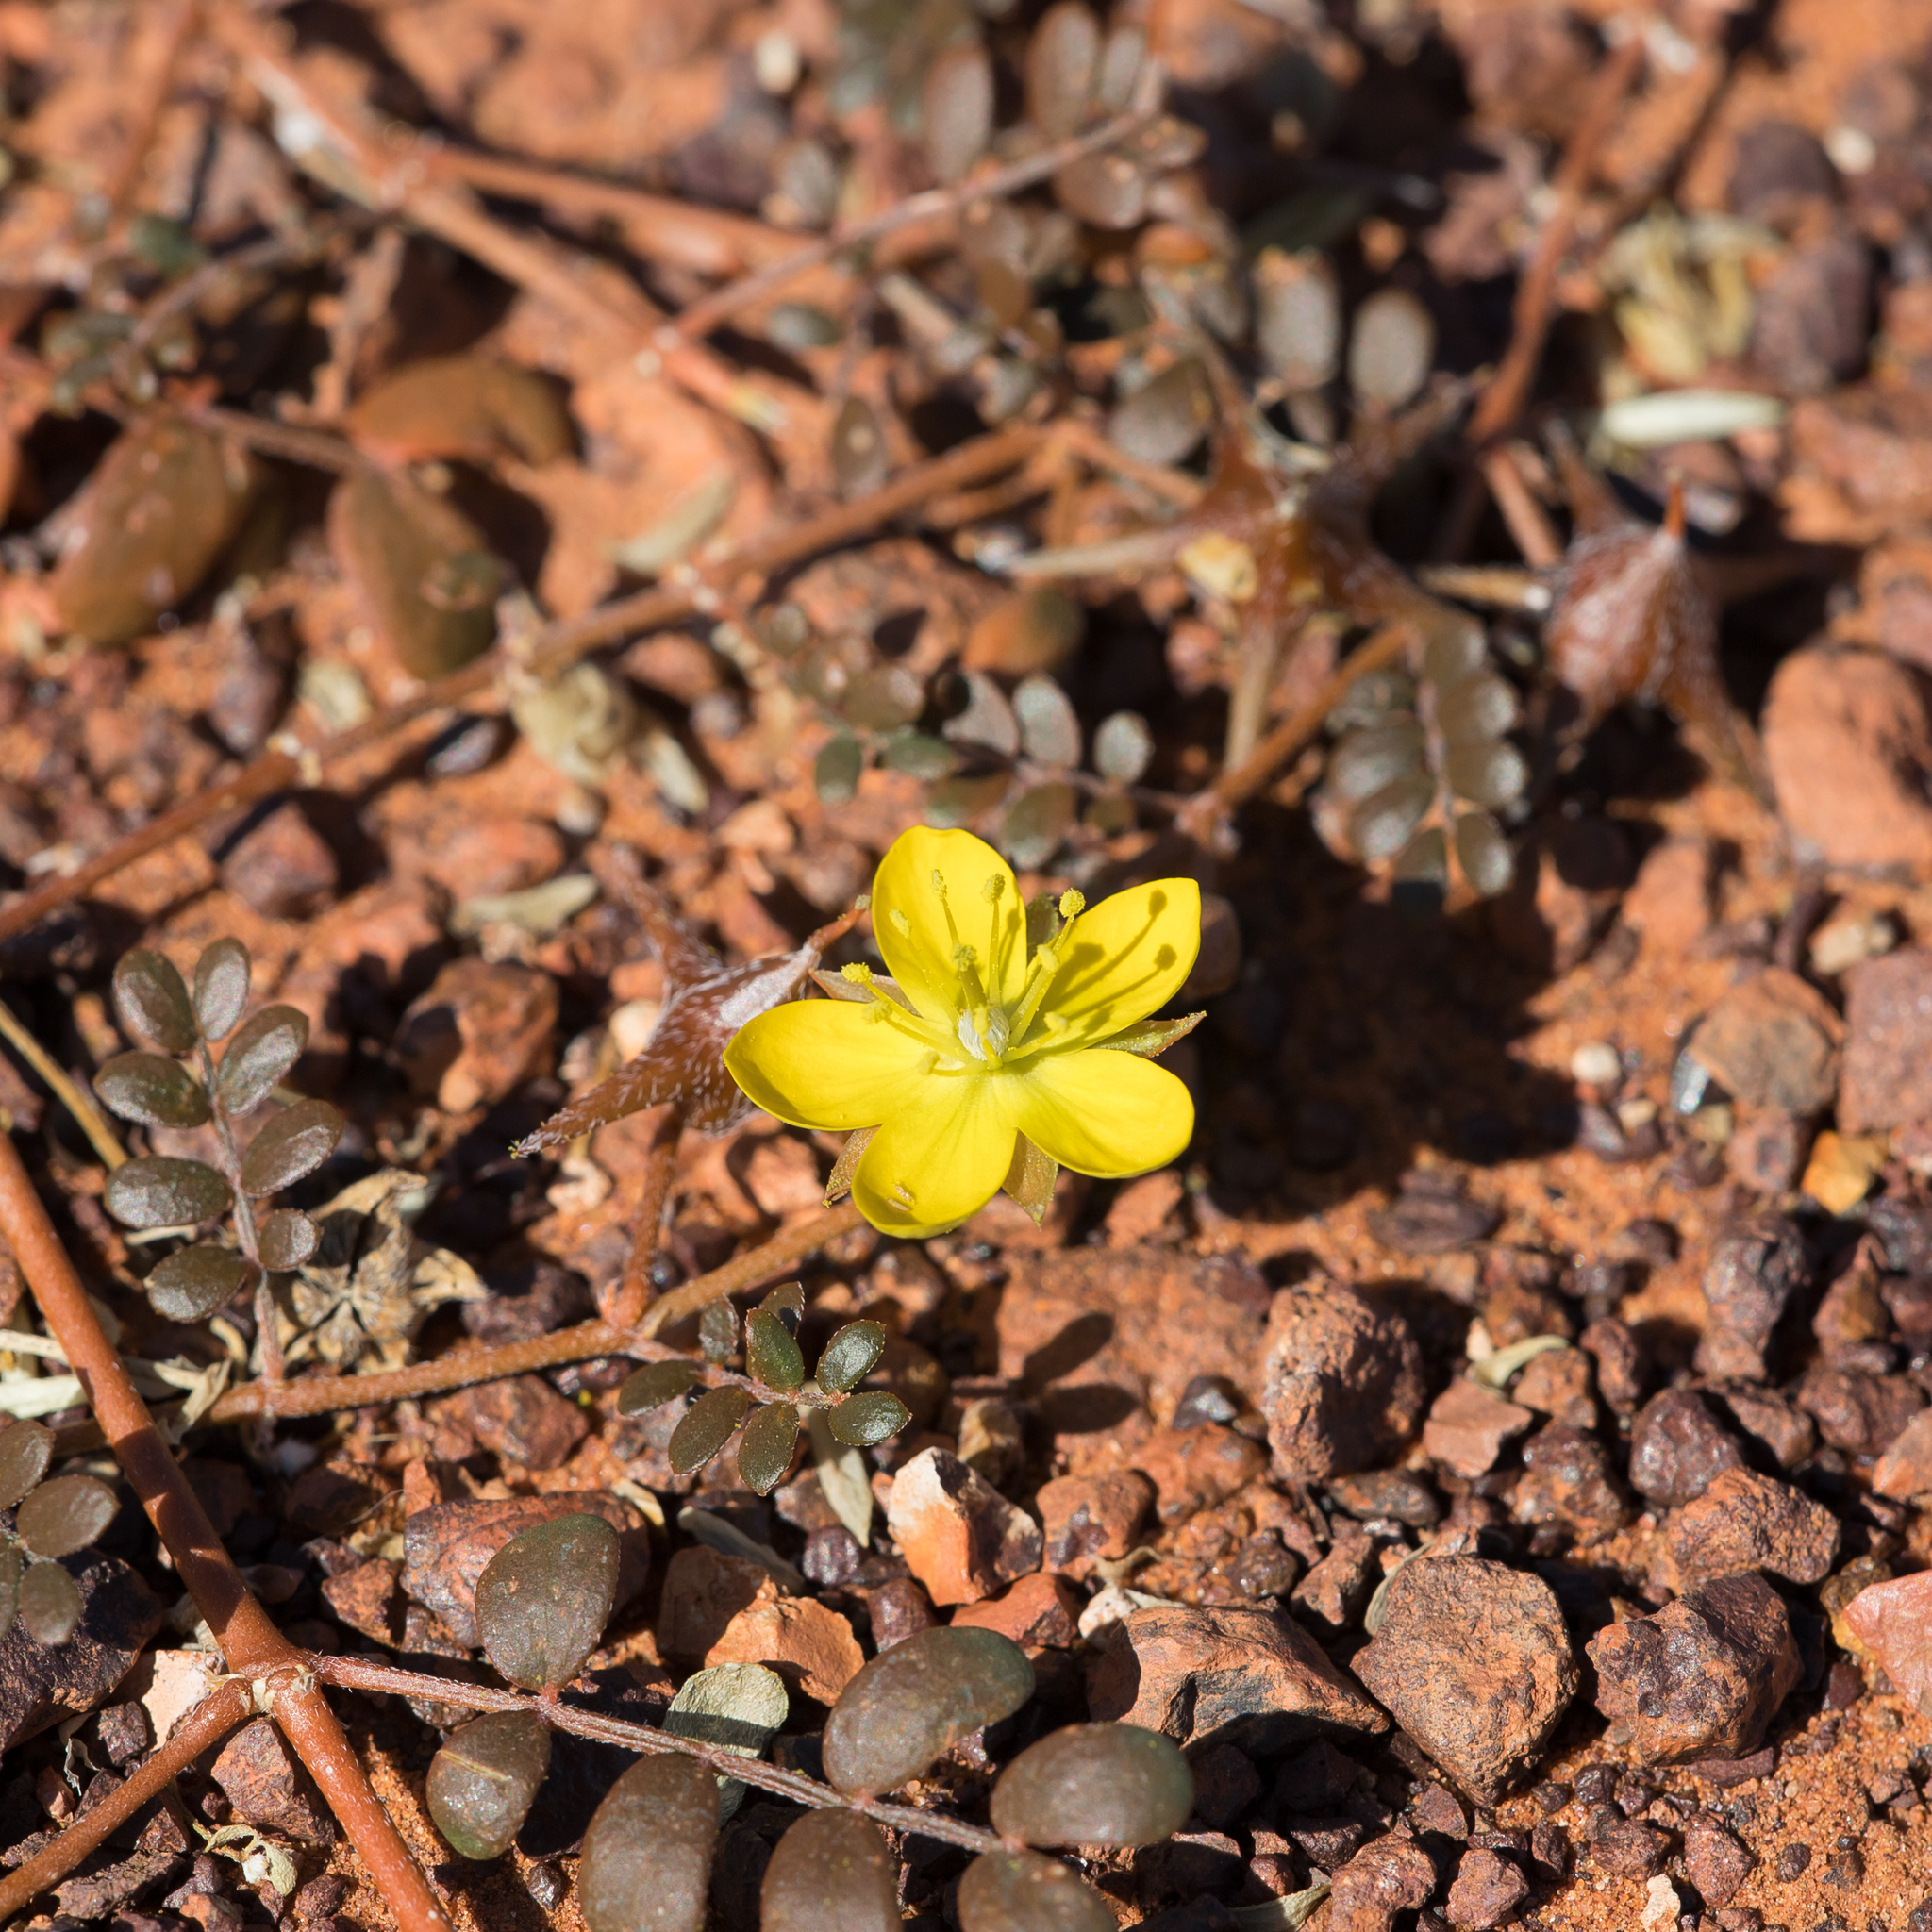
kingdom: Plantae
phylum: Tracheophyta
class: Magnoliopsida
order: Zygophyllales
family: Zygophyllaceae
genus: Tribulus
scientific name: Tribulus astrocarpus
